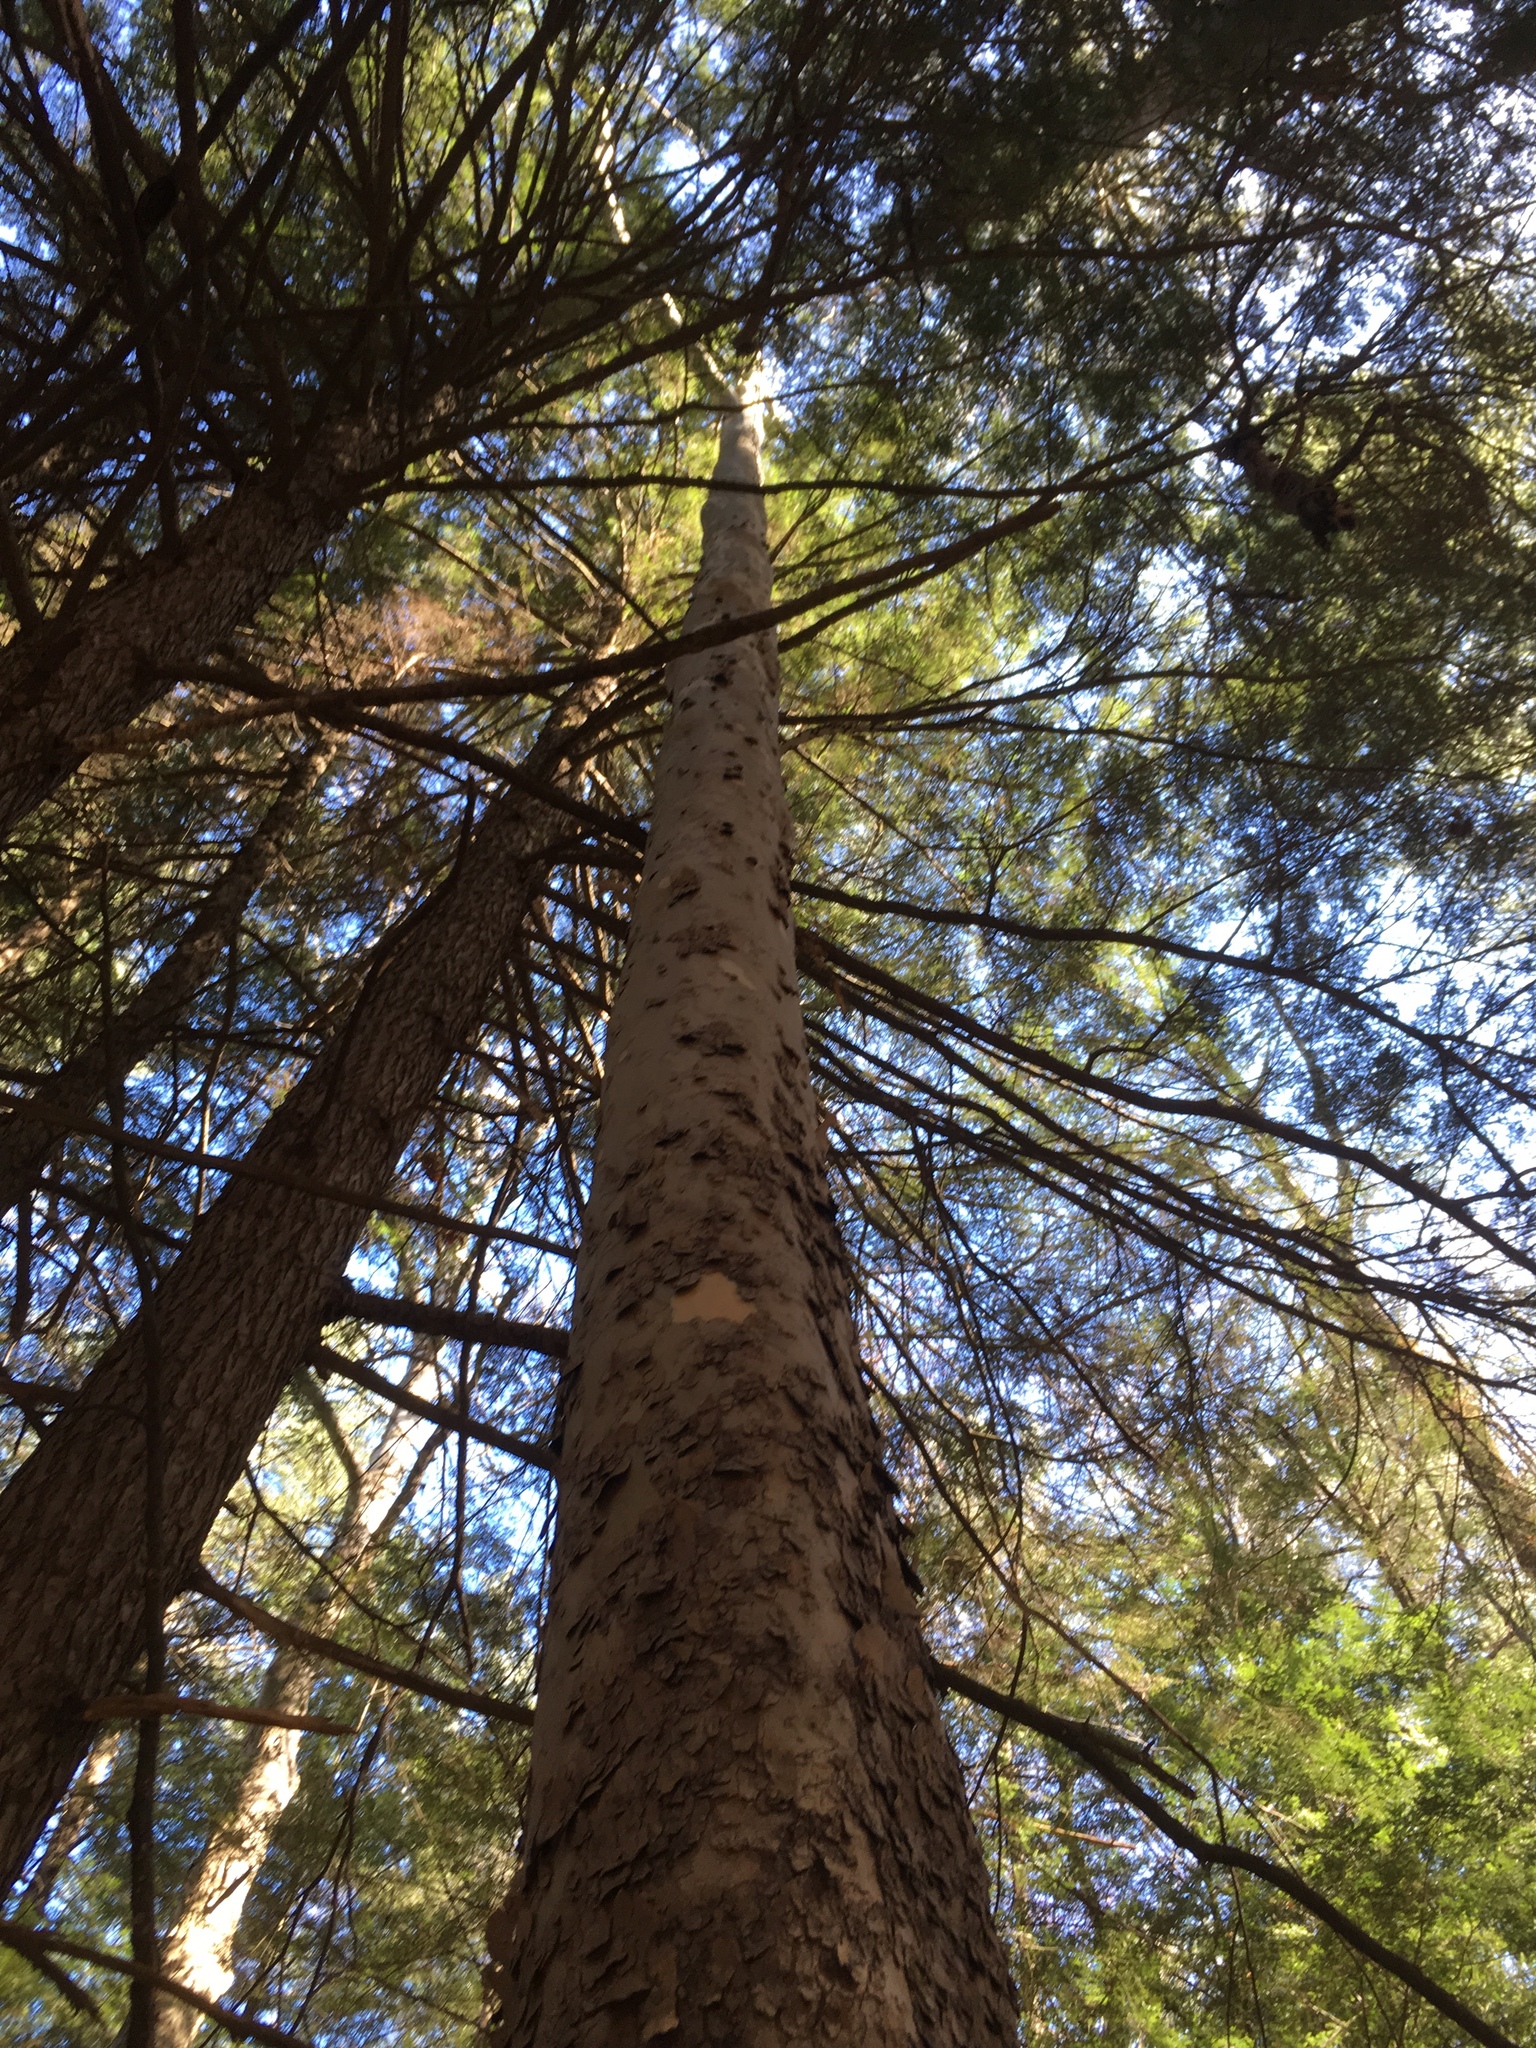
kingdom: Plantae
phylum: Tracheophyta
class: Magnoliopsida
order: Proteales
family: Platanaceae
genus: Platanus
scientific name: Platanus occidentalis
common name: American sycamore
